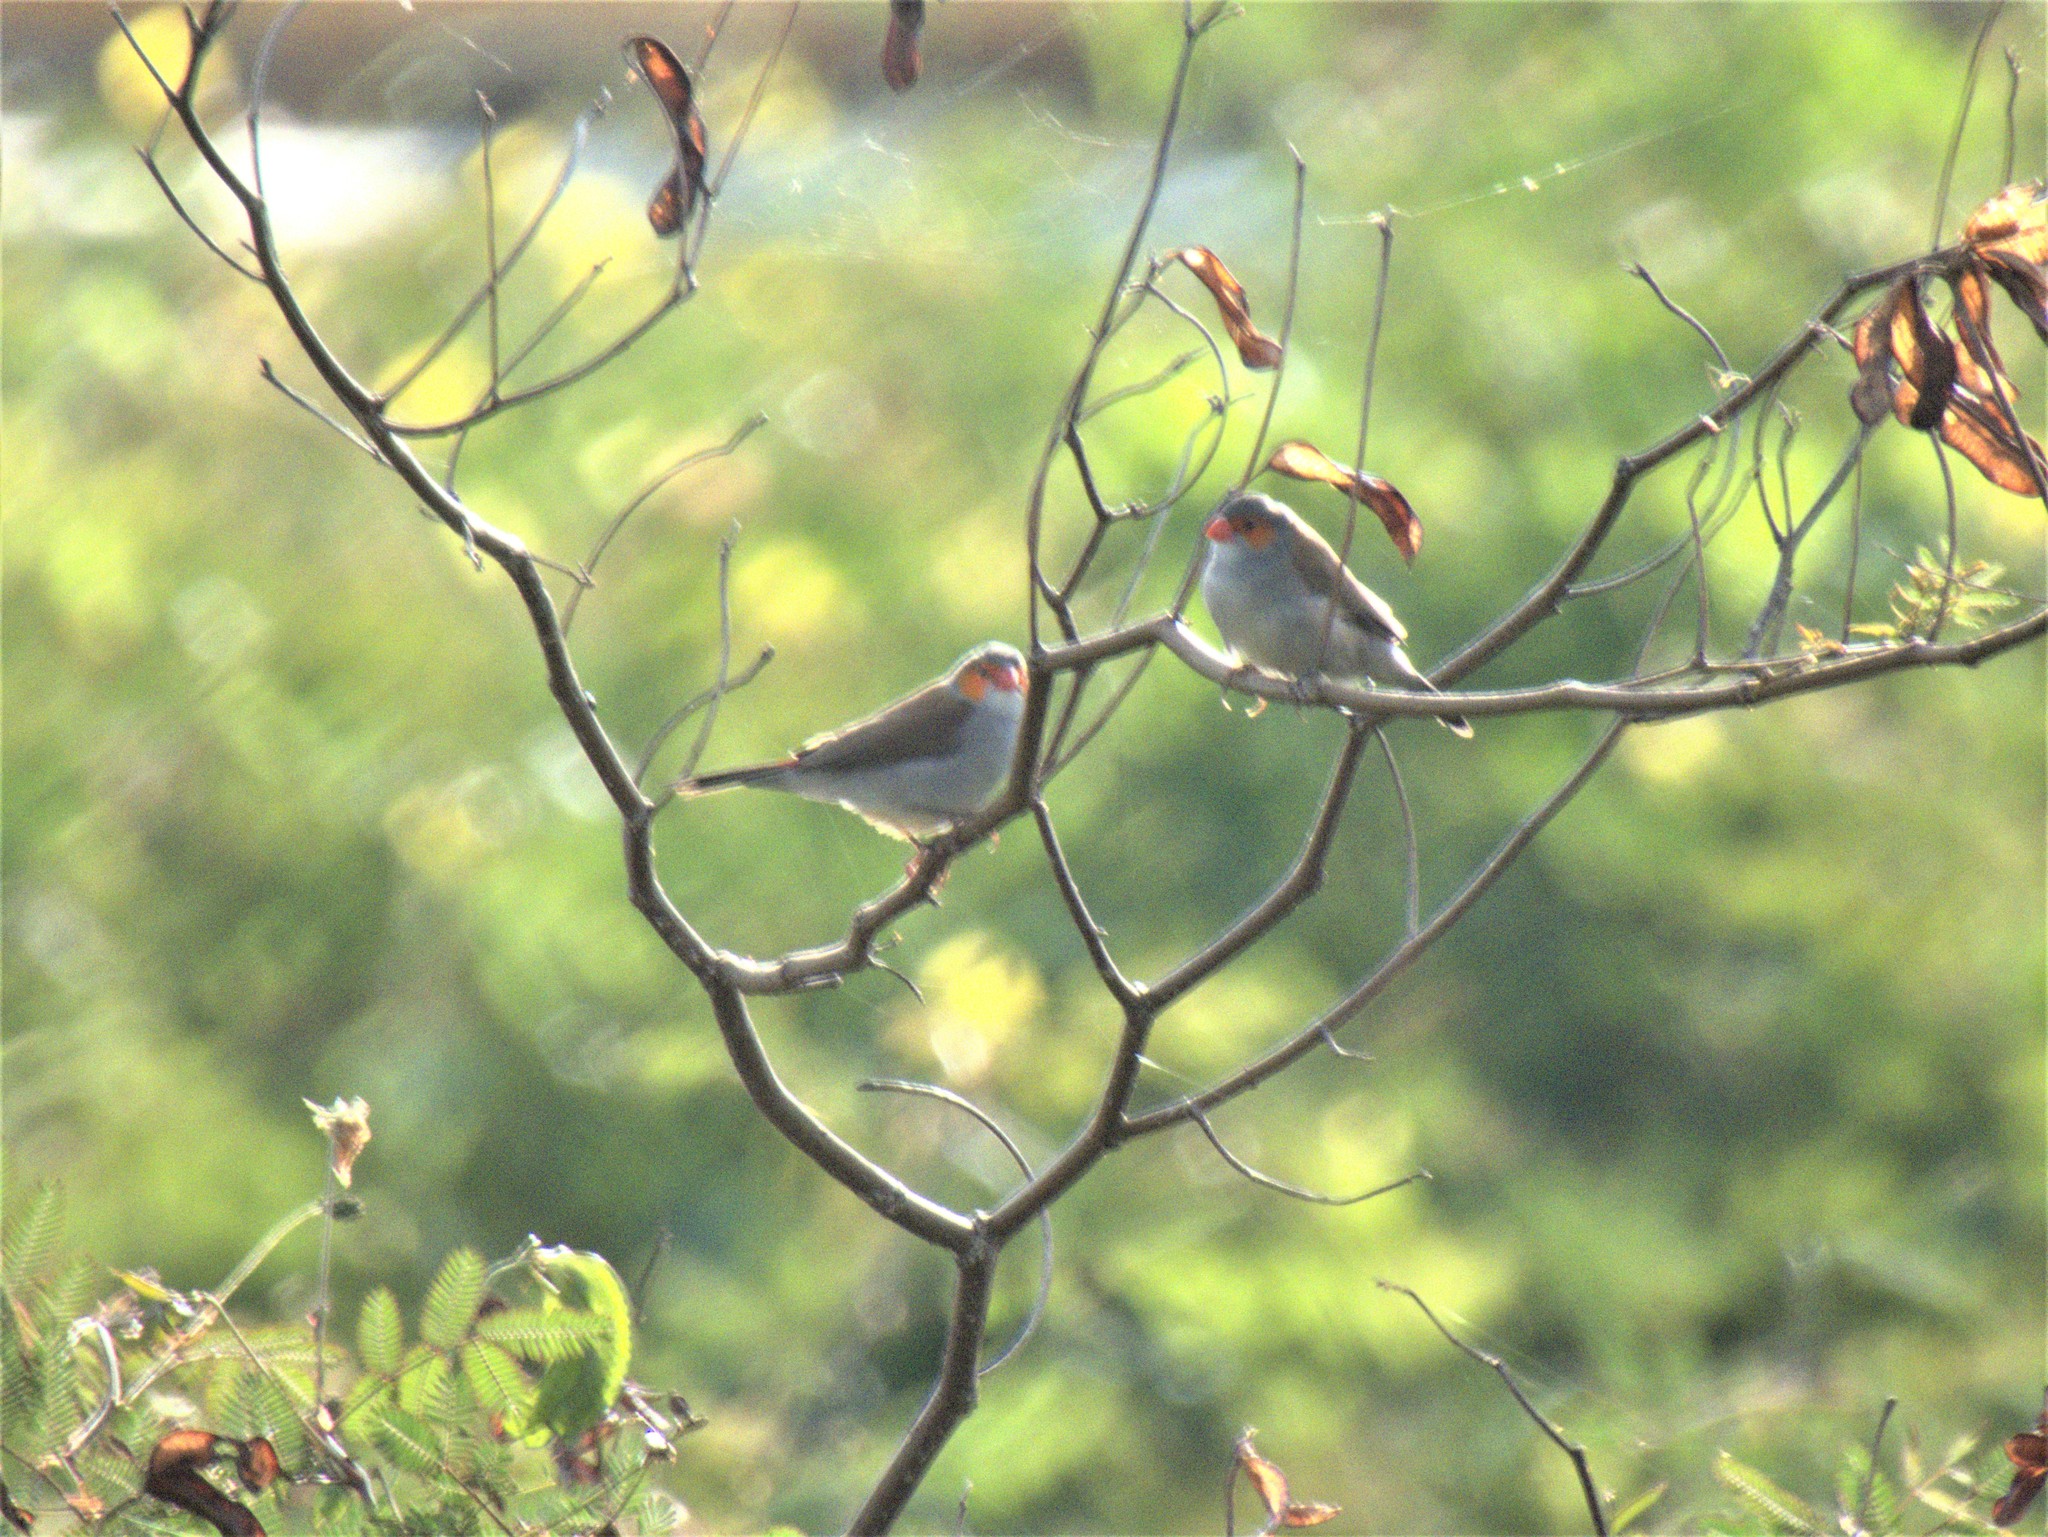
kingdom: Animalia
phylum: Chordata
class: Aves
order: Passeriformes
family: Estrildidae
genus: Estrilda
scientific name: Estrilda melpoda
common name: Orange-cheeked waxbill
